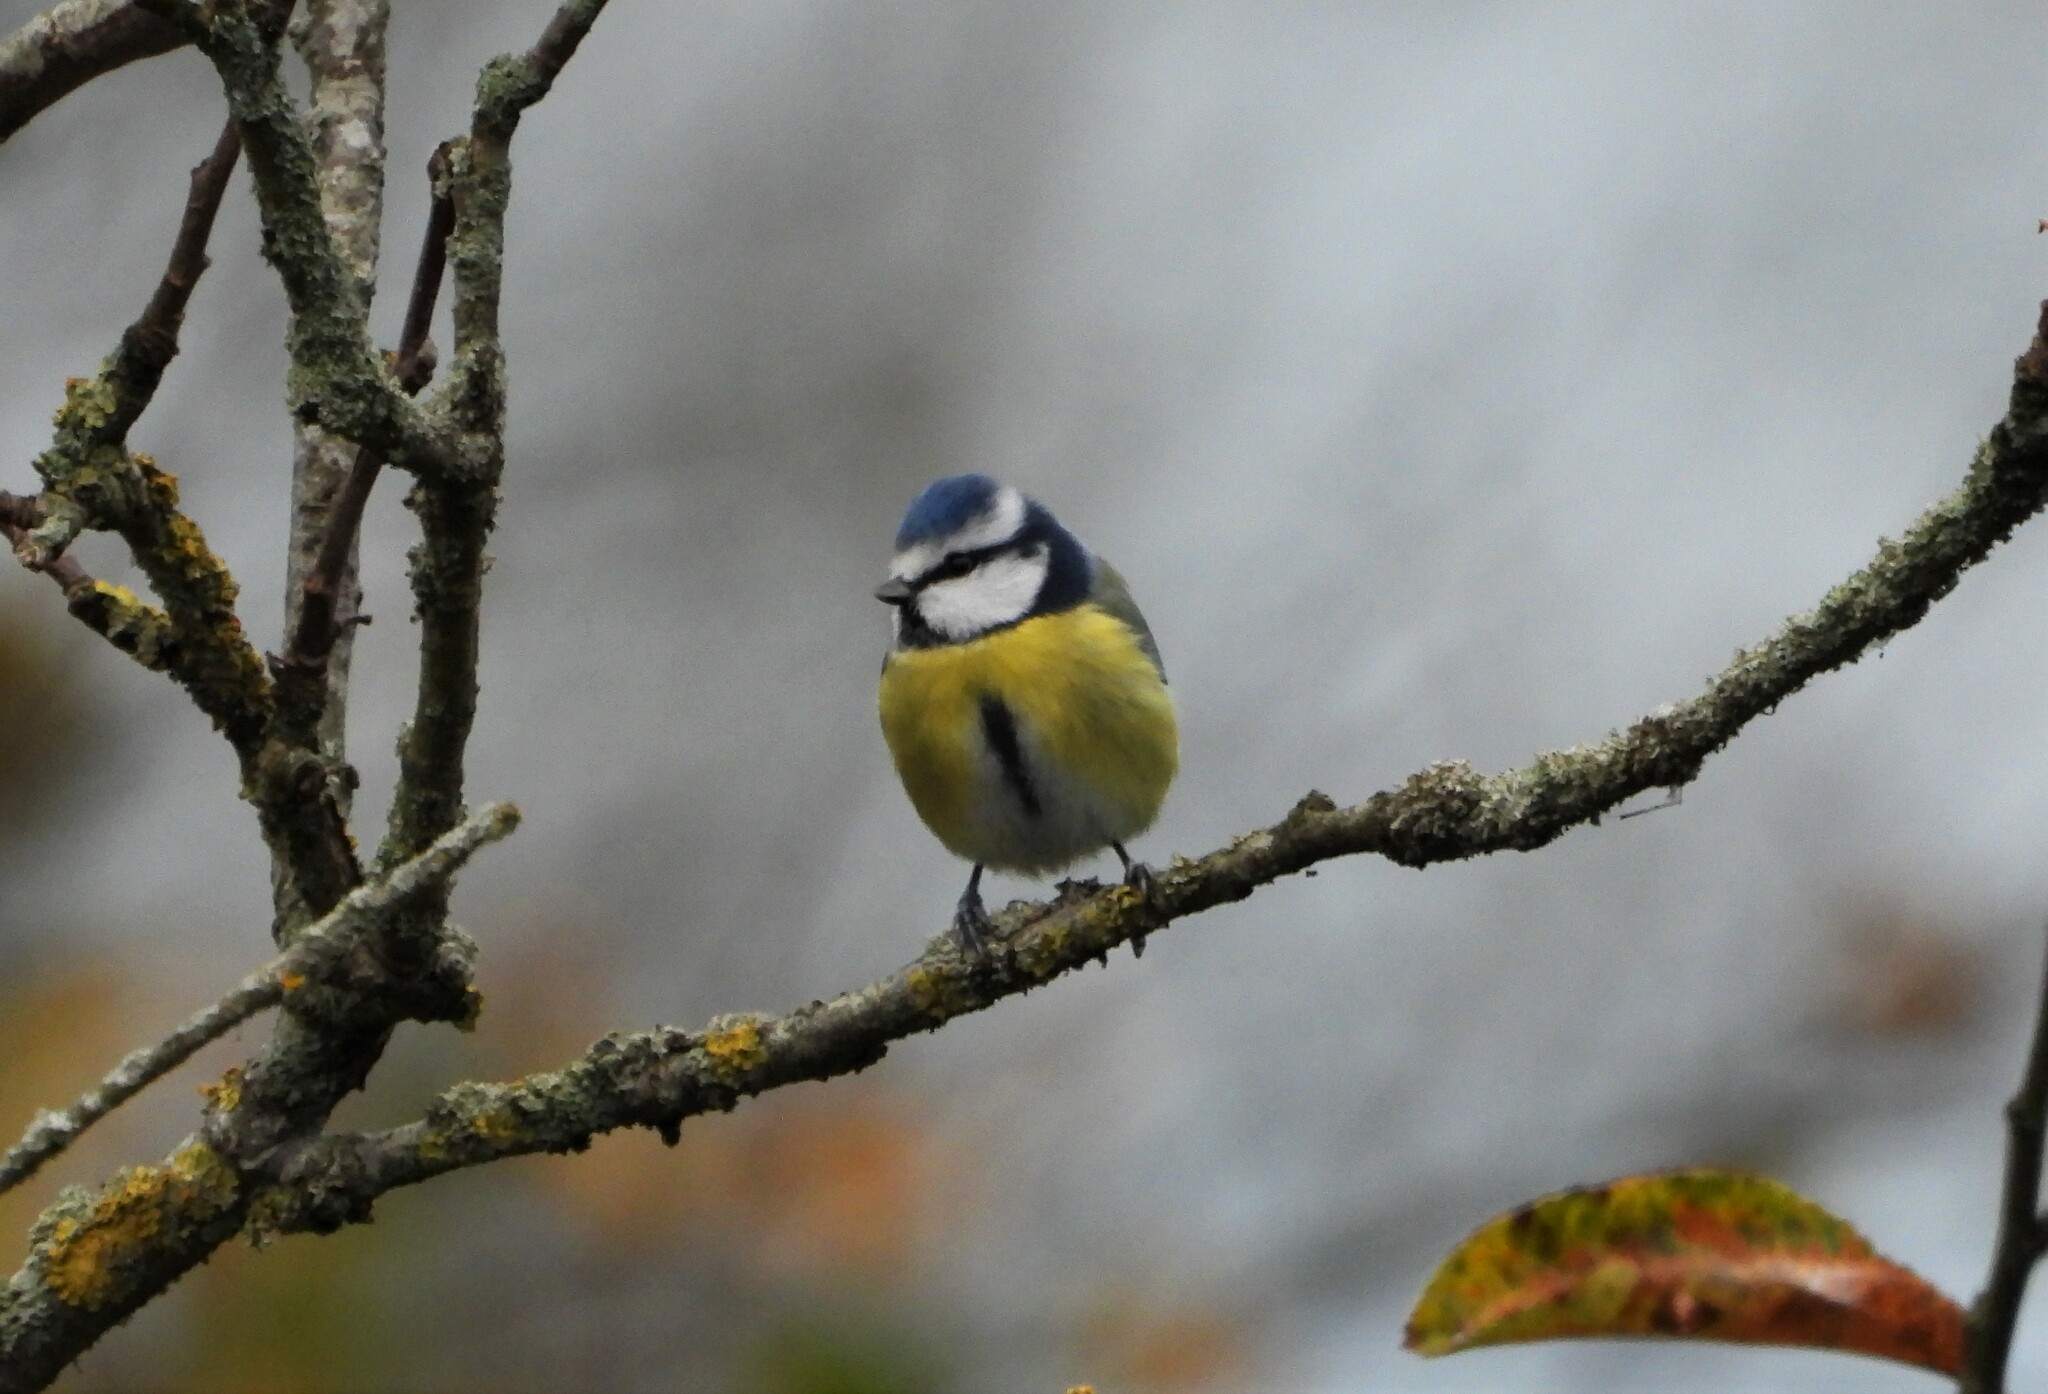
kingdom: Animalia
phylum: Chordata
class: Aves
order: Passeriformes
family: Paridae
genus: Cyanistes
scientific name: Cyanistes caeruleus
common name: Eurasian blue tit
